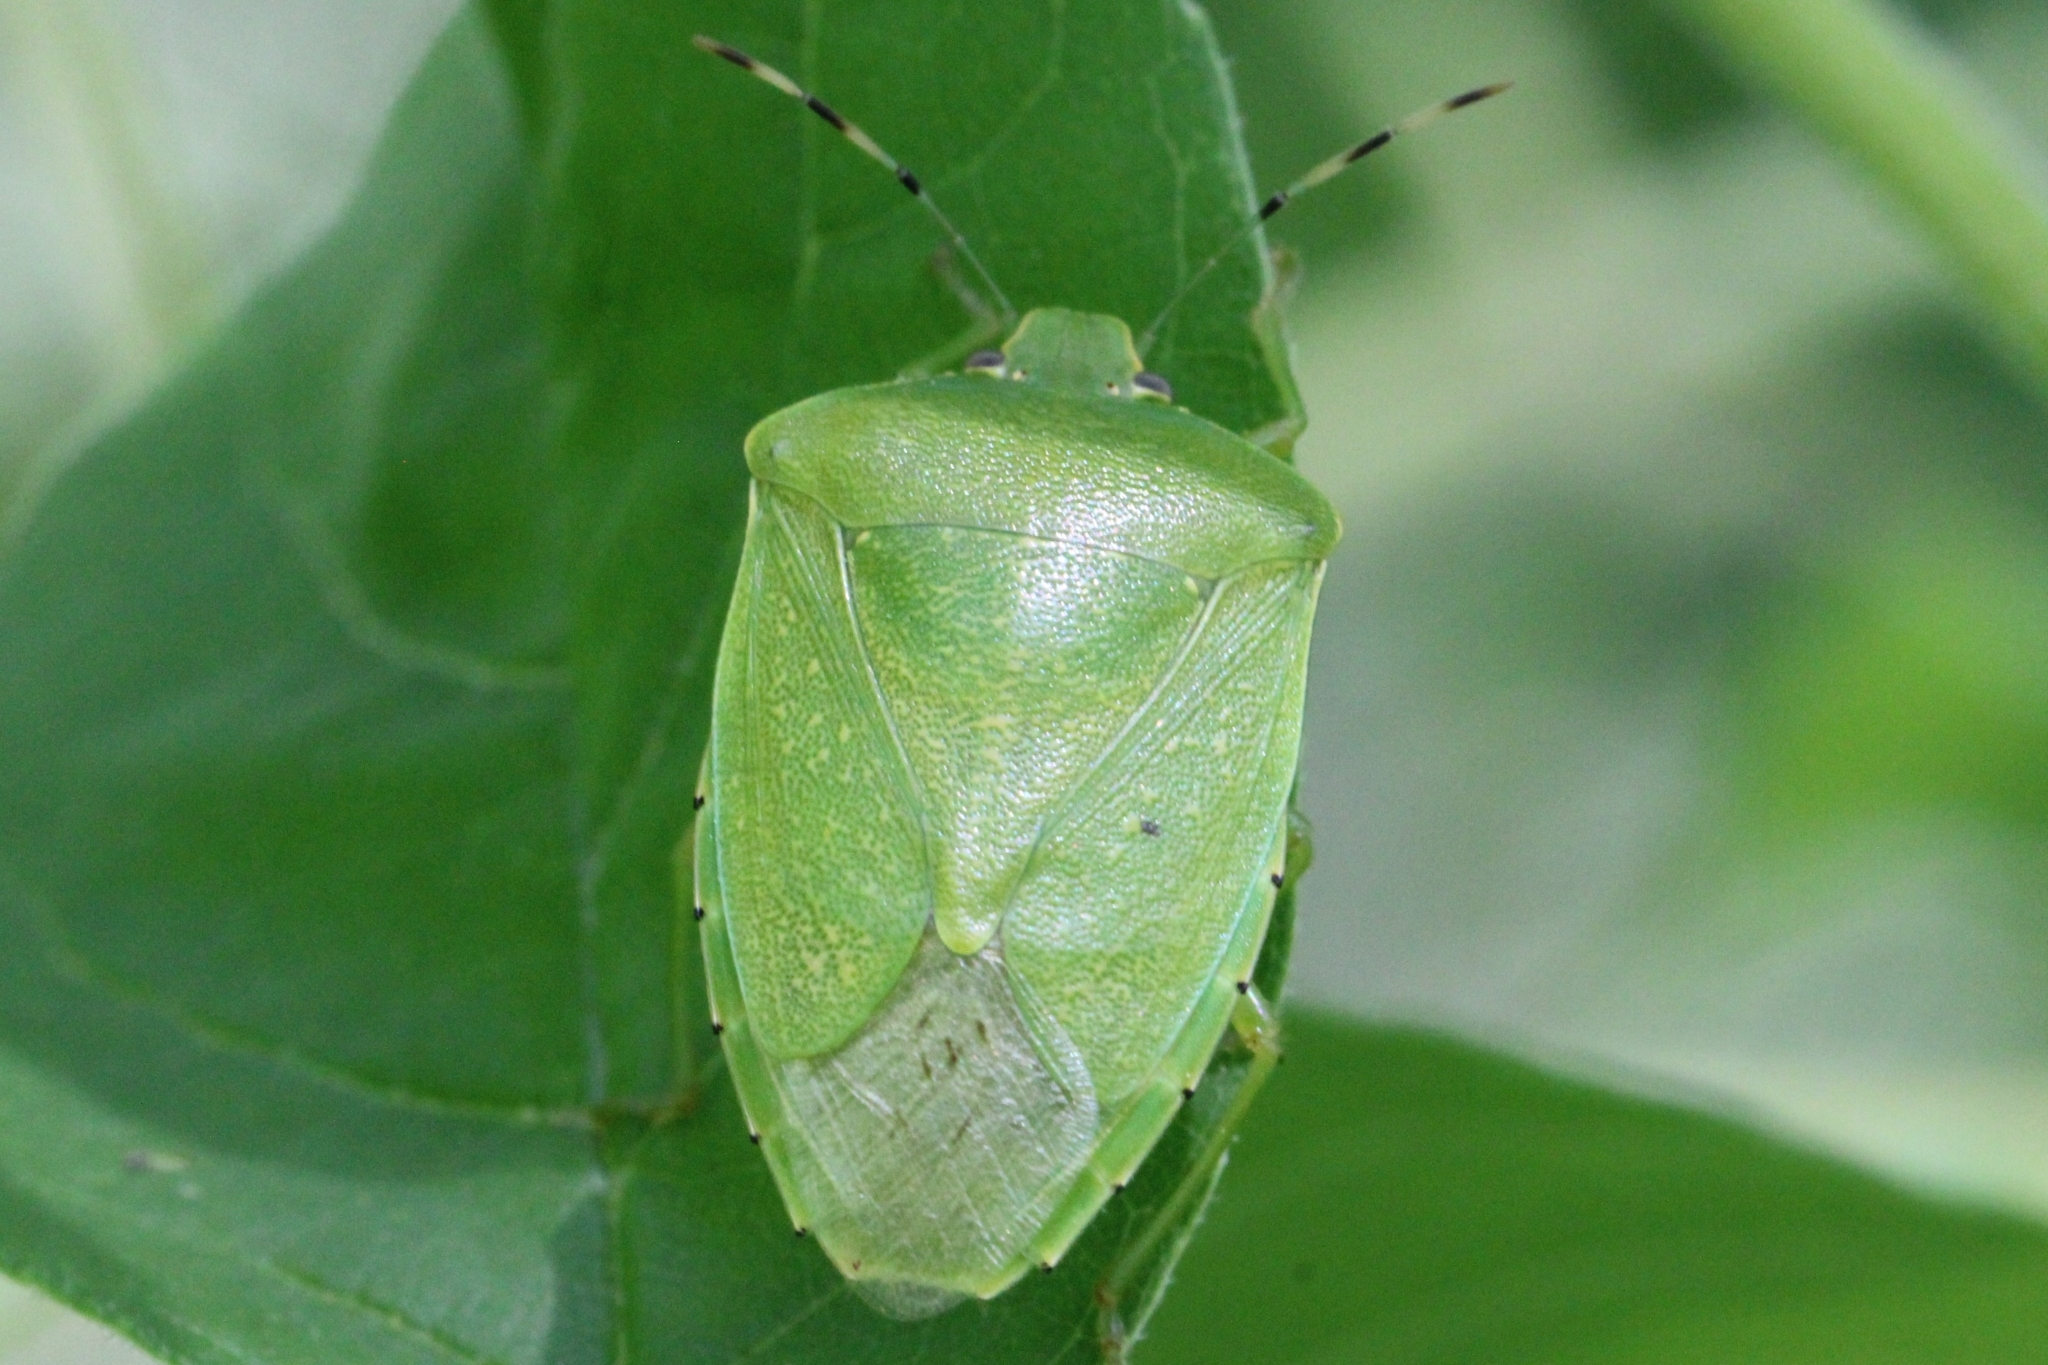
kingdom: Animalia
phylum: Arthropoda
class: Insecta
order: Hemiptera
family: Pentatomidae
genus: Chinavia
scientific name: Chinavia hilaris
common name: Green stink bug
